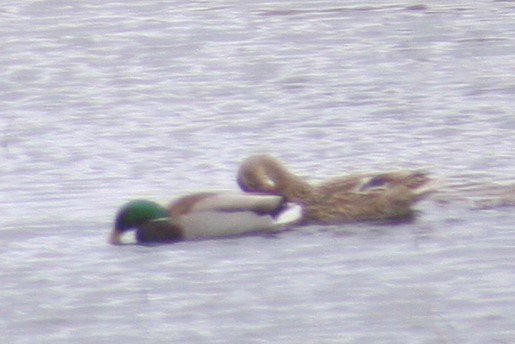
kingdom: Animalia
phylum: Chordata
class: Aves
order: Anseriformes
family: Anatidae
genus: Anas
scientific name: Anas platyrhynchos
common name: Mallard
